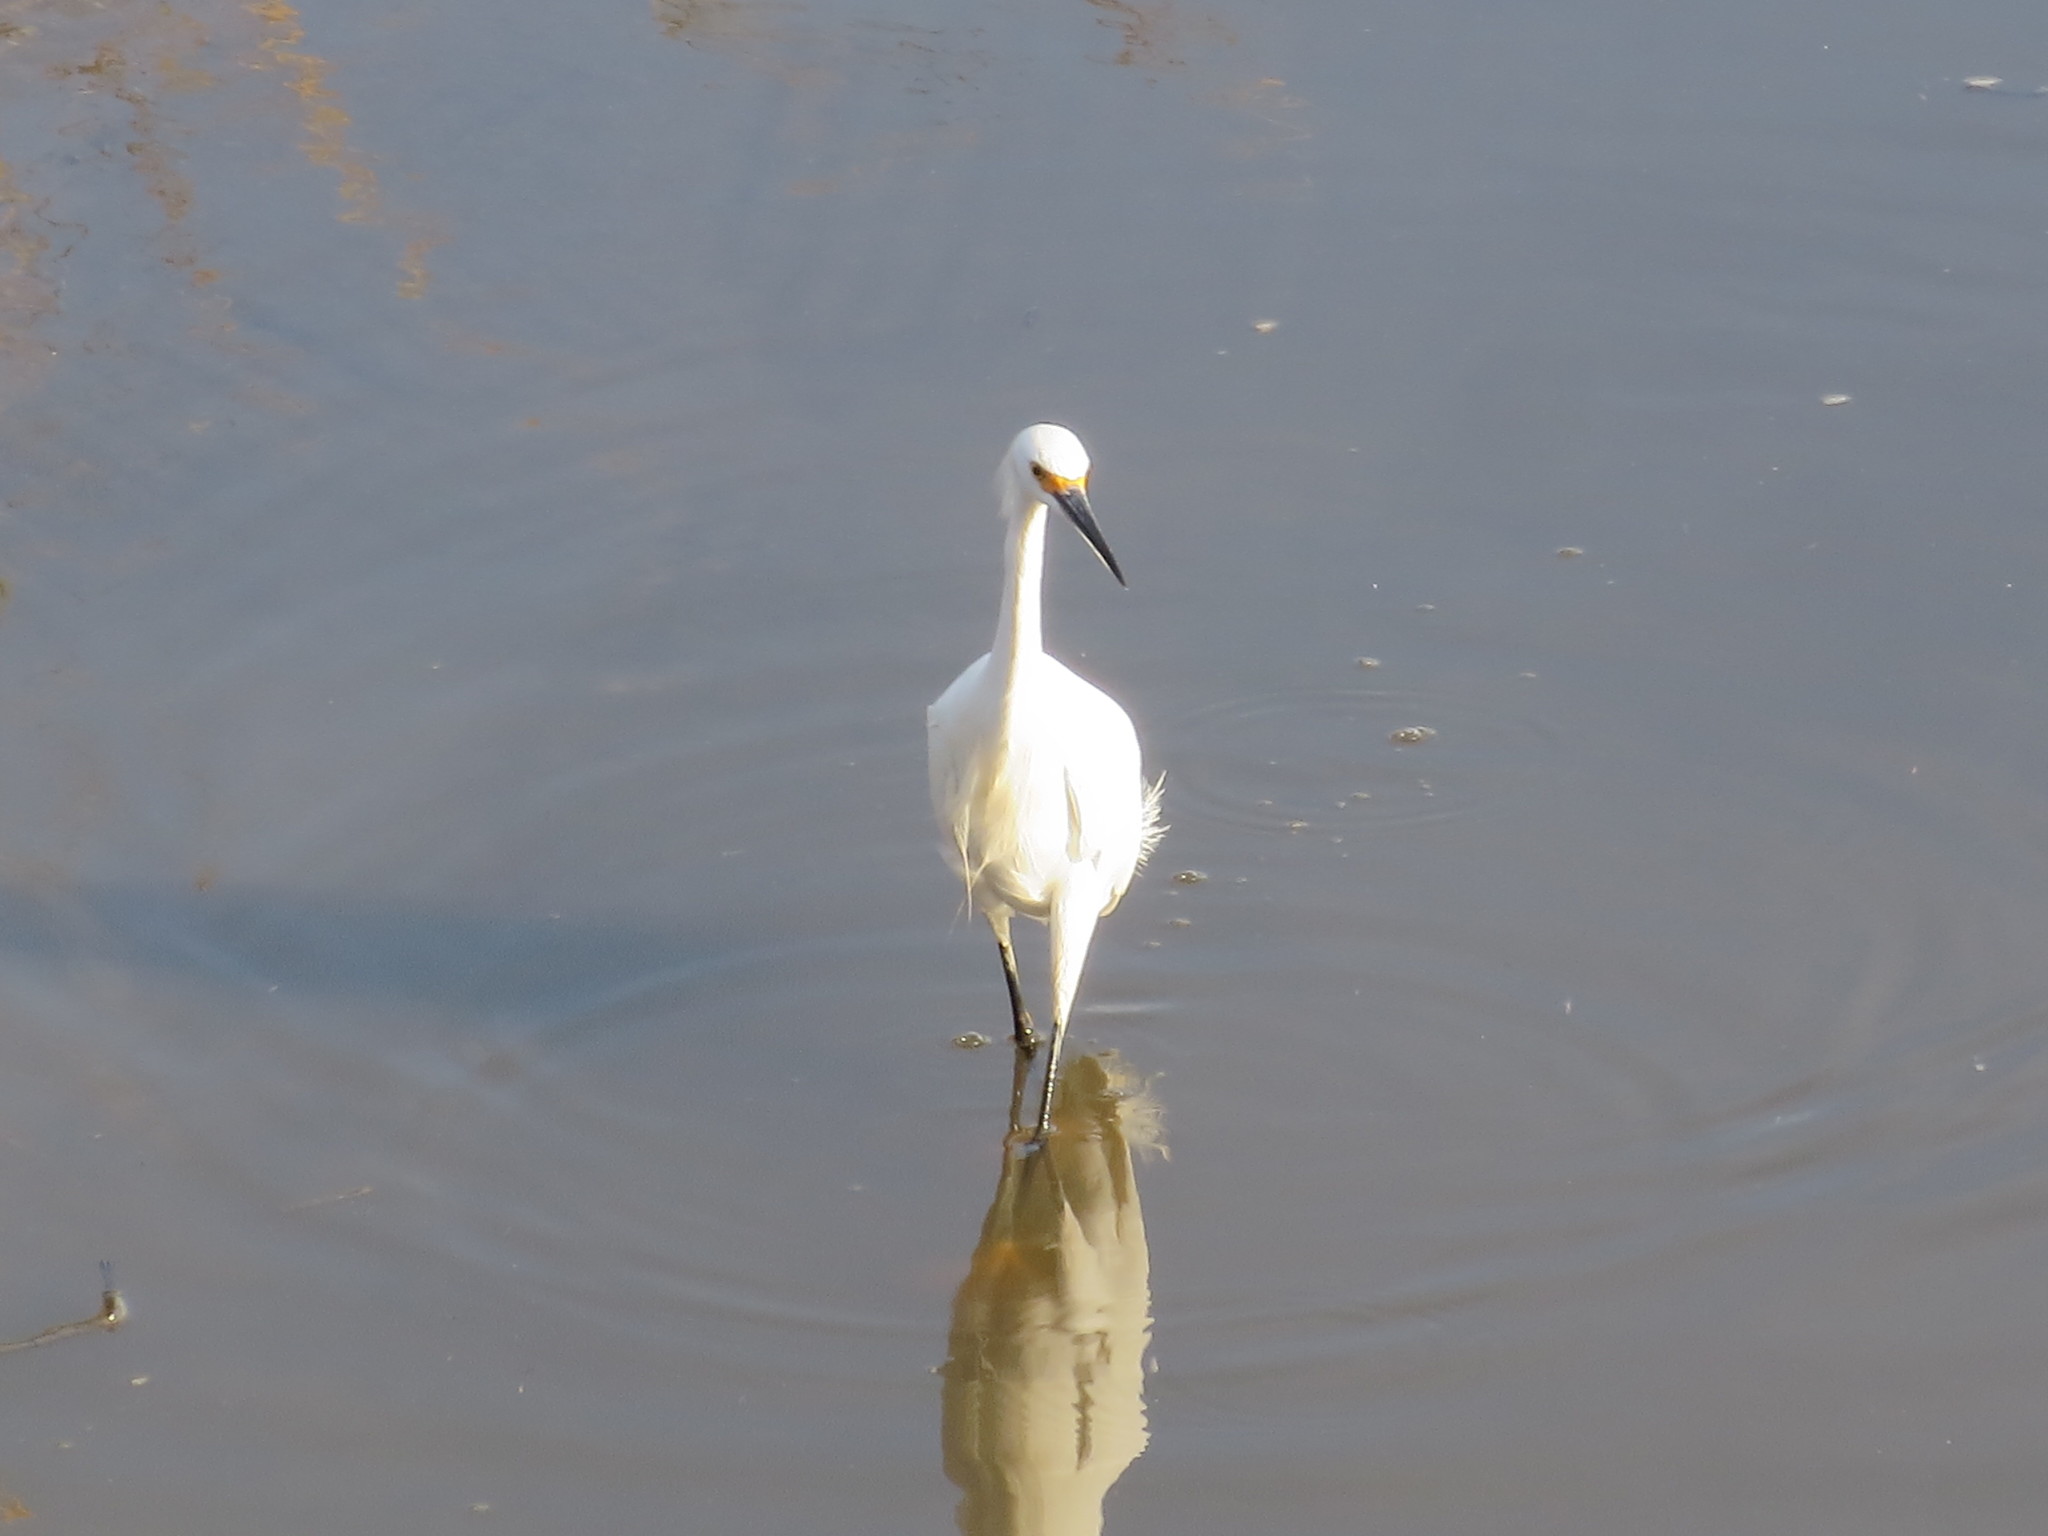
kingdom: Animalia
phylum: Chordata
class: Aves
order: Pelecaniformes
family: Ardeidae
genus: Egretta
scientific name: Egretta thula
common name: Snowy egret
